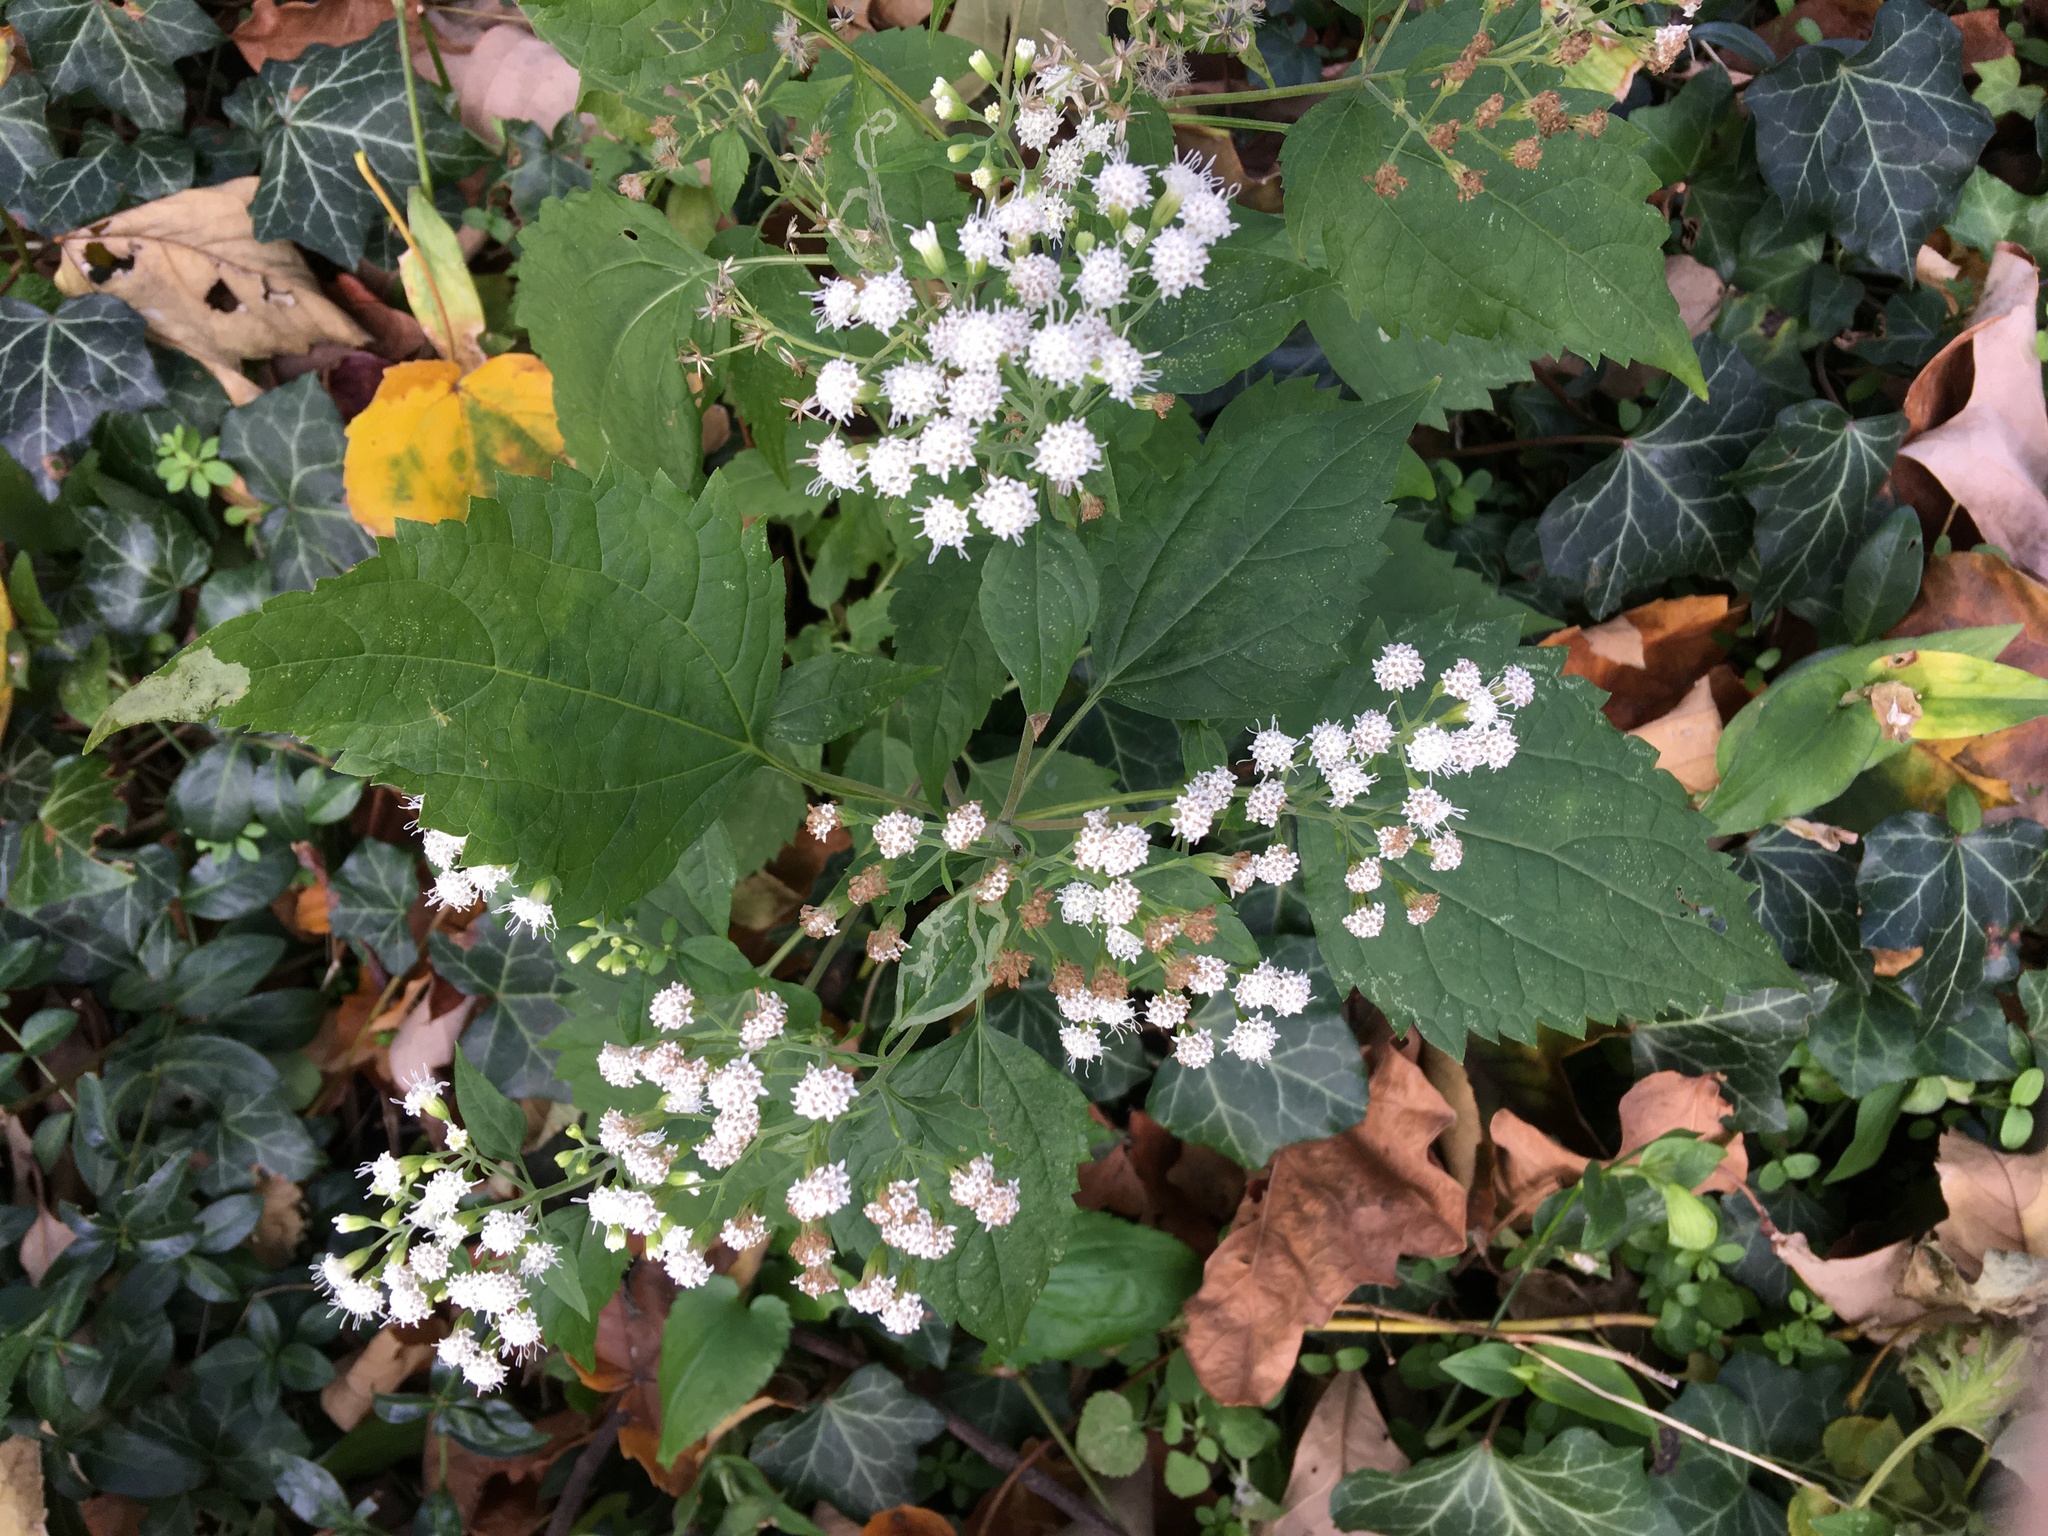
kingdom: Plantae
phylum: Tracheophyta
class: Magnoliopsida
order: Asterales
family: Asteraceae
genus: Ageratina
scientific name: Ageratina altissima
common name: White snakeroot
